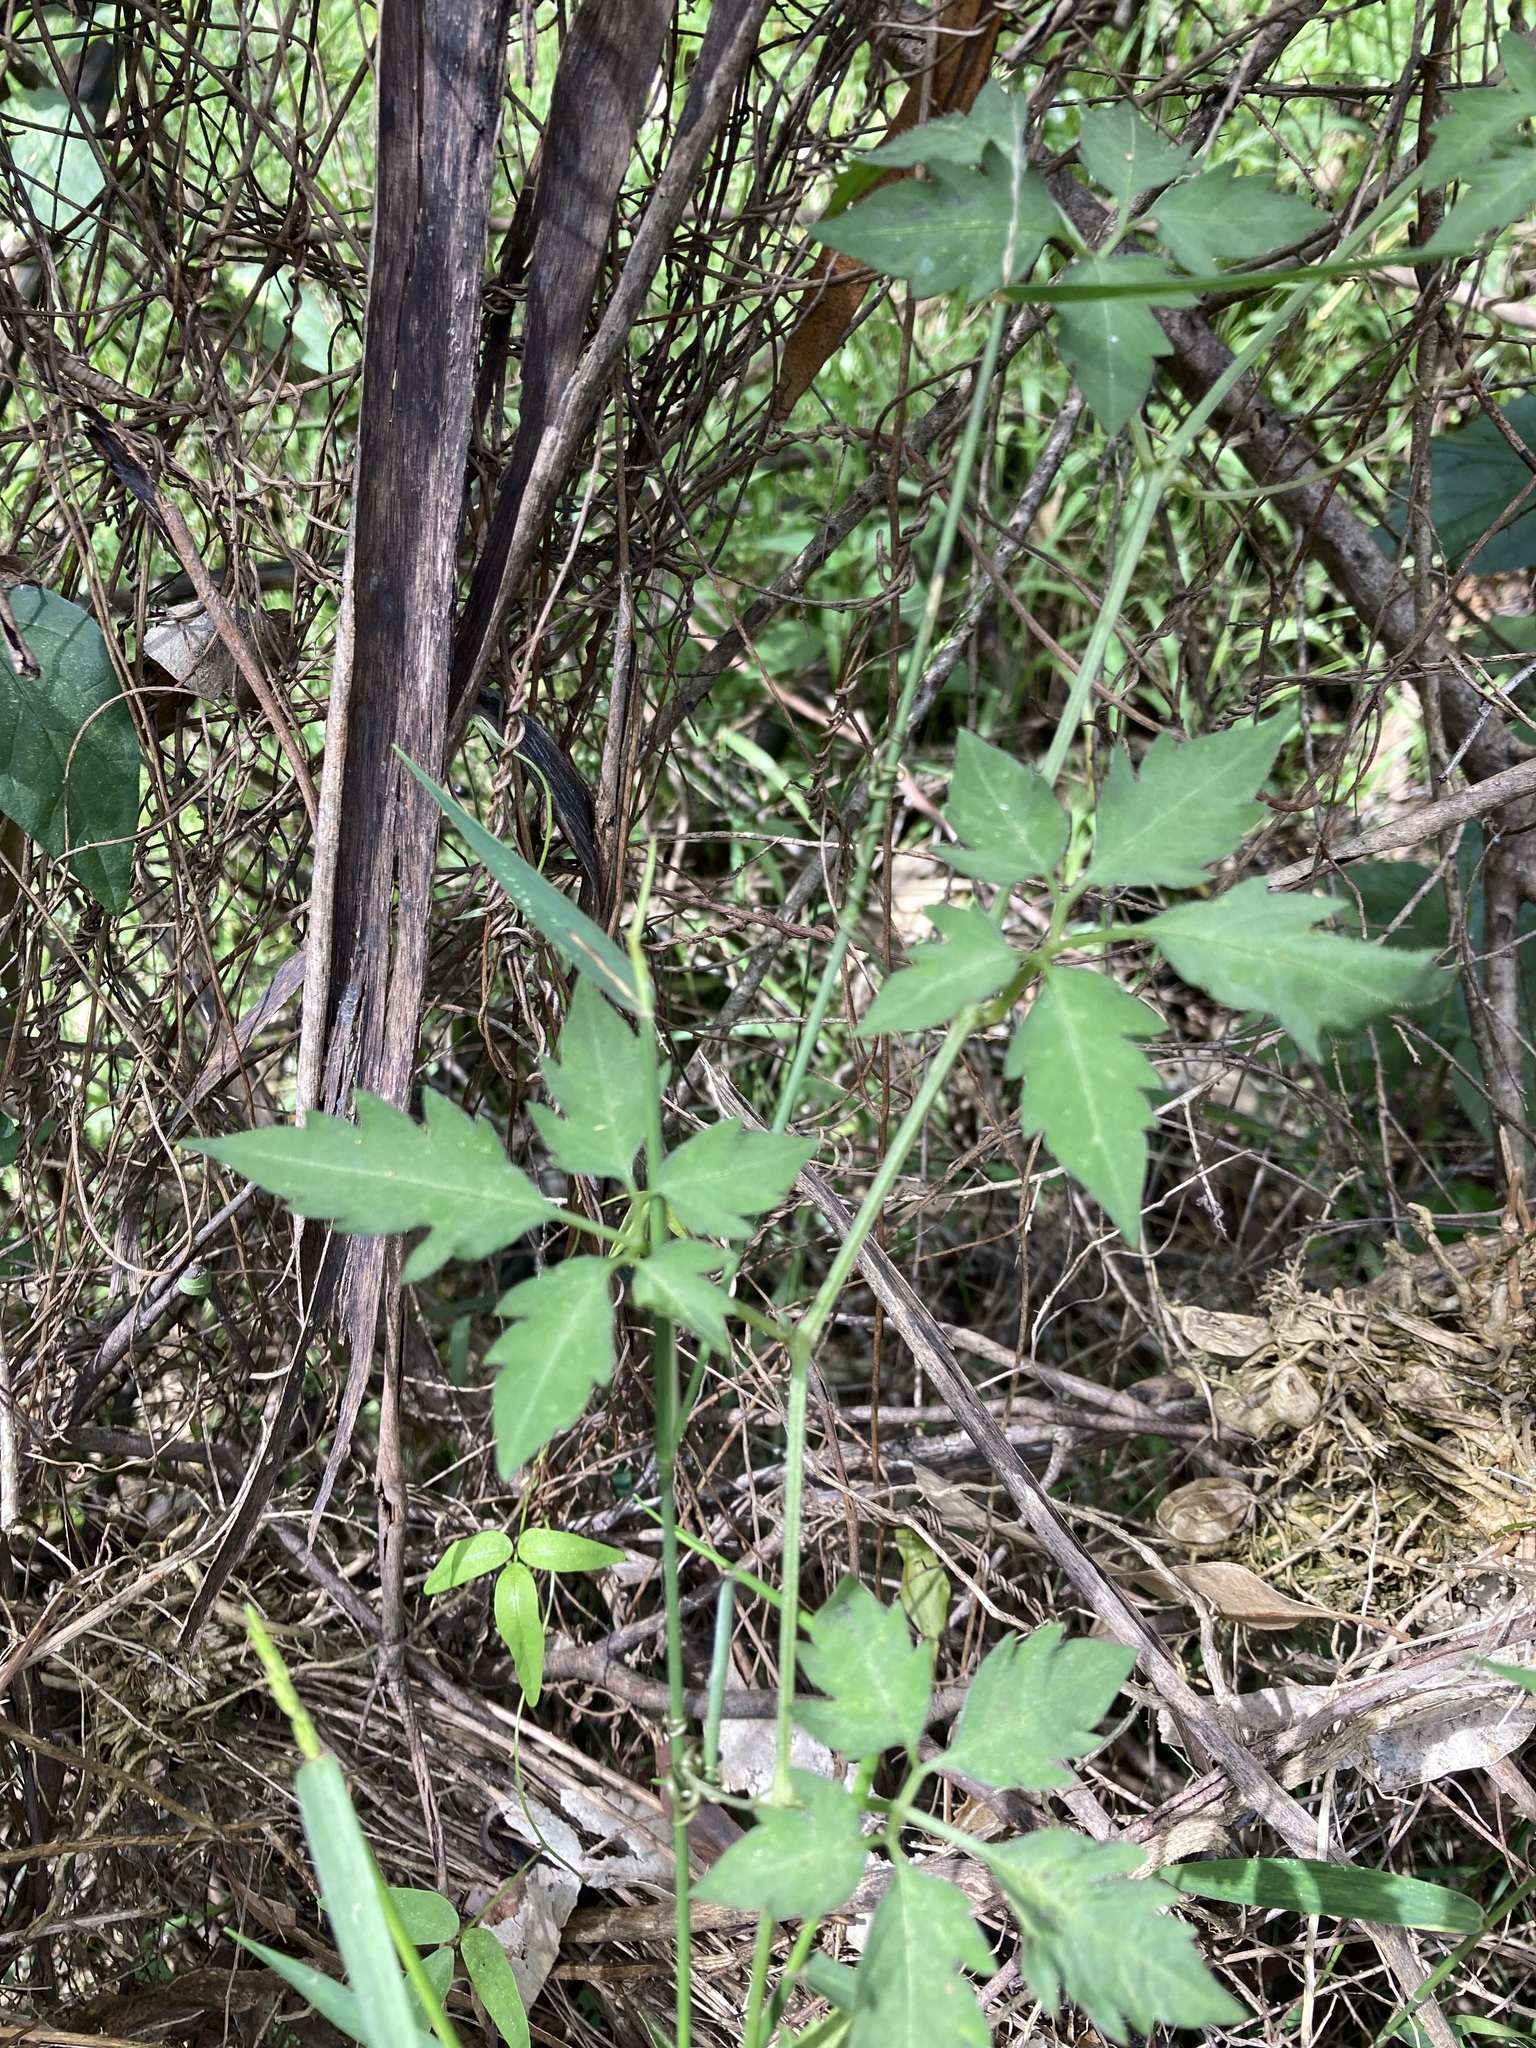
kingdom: Plantae
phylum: Tracheophyta
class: Magnoliopsida
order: Vitales
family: Vitaceae
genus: Causonis
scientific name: Causonis clematidea
